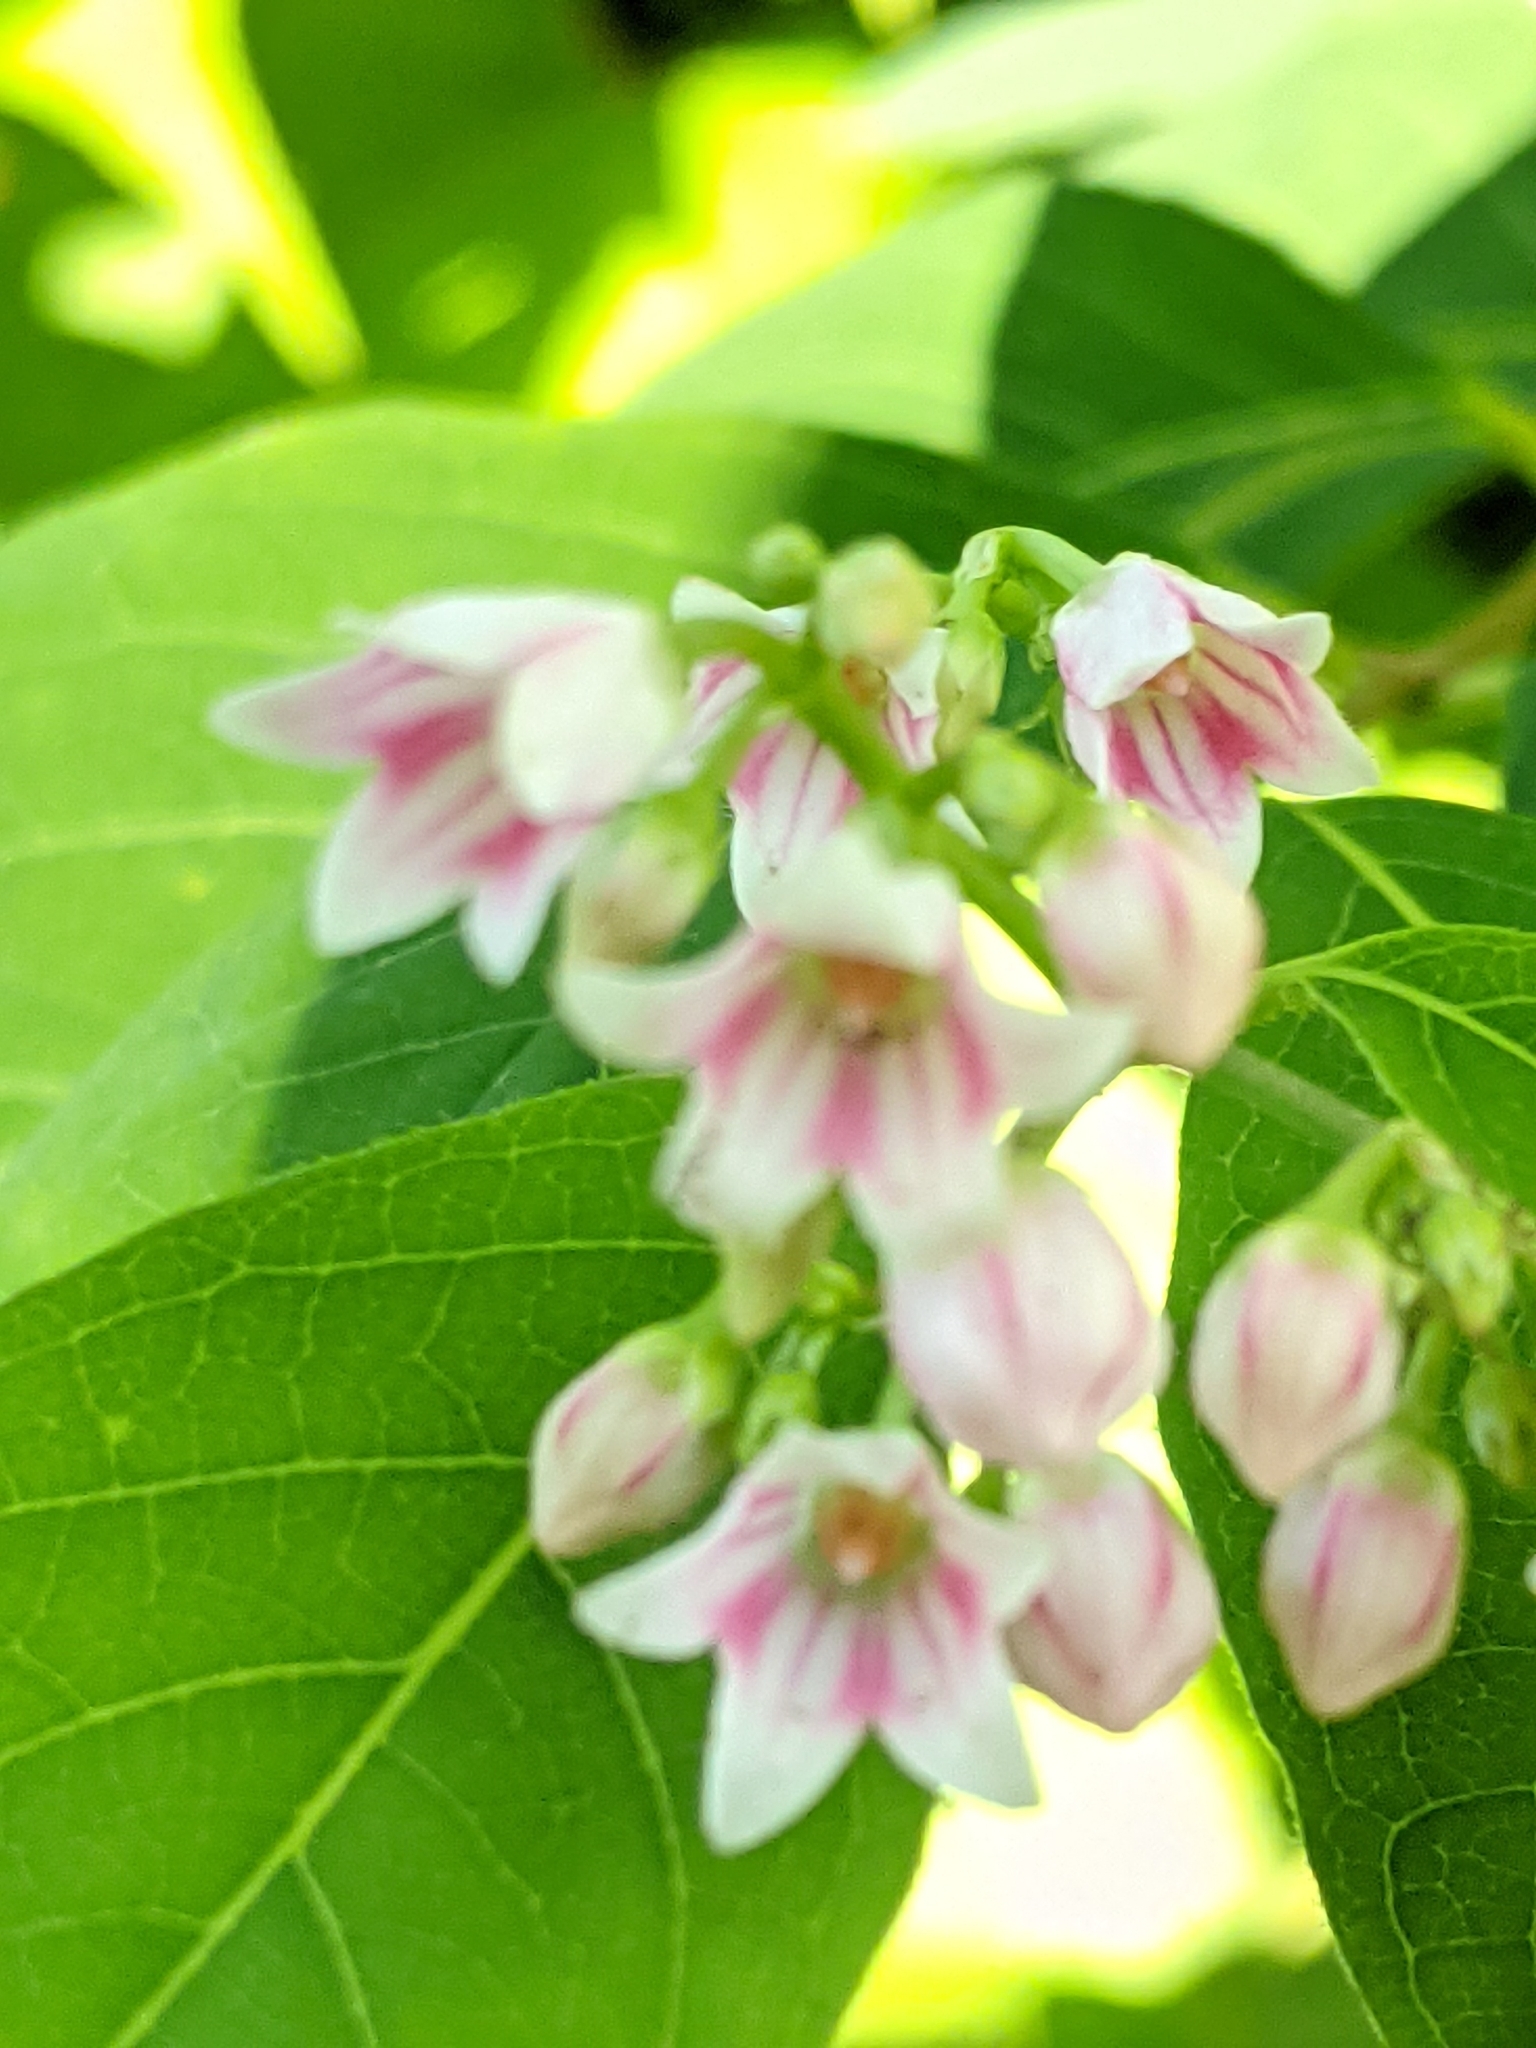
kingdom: Plantae
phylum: Tracheophyta
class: Magnoliopsida
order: Gentianales
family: Apocynaceae
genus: Apocynum
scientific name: Apocynum androsaemifolium
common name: Spreading dogbane
